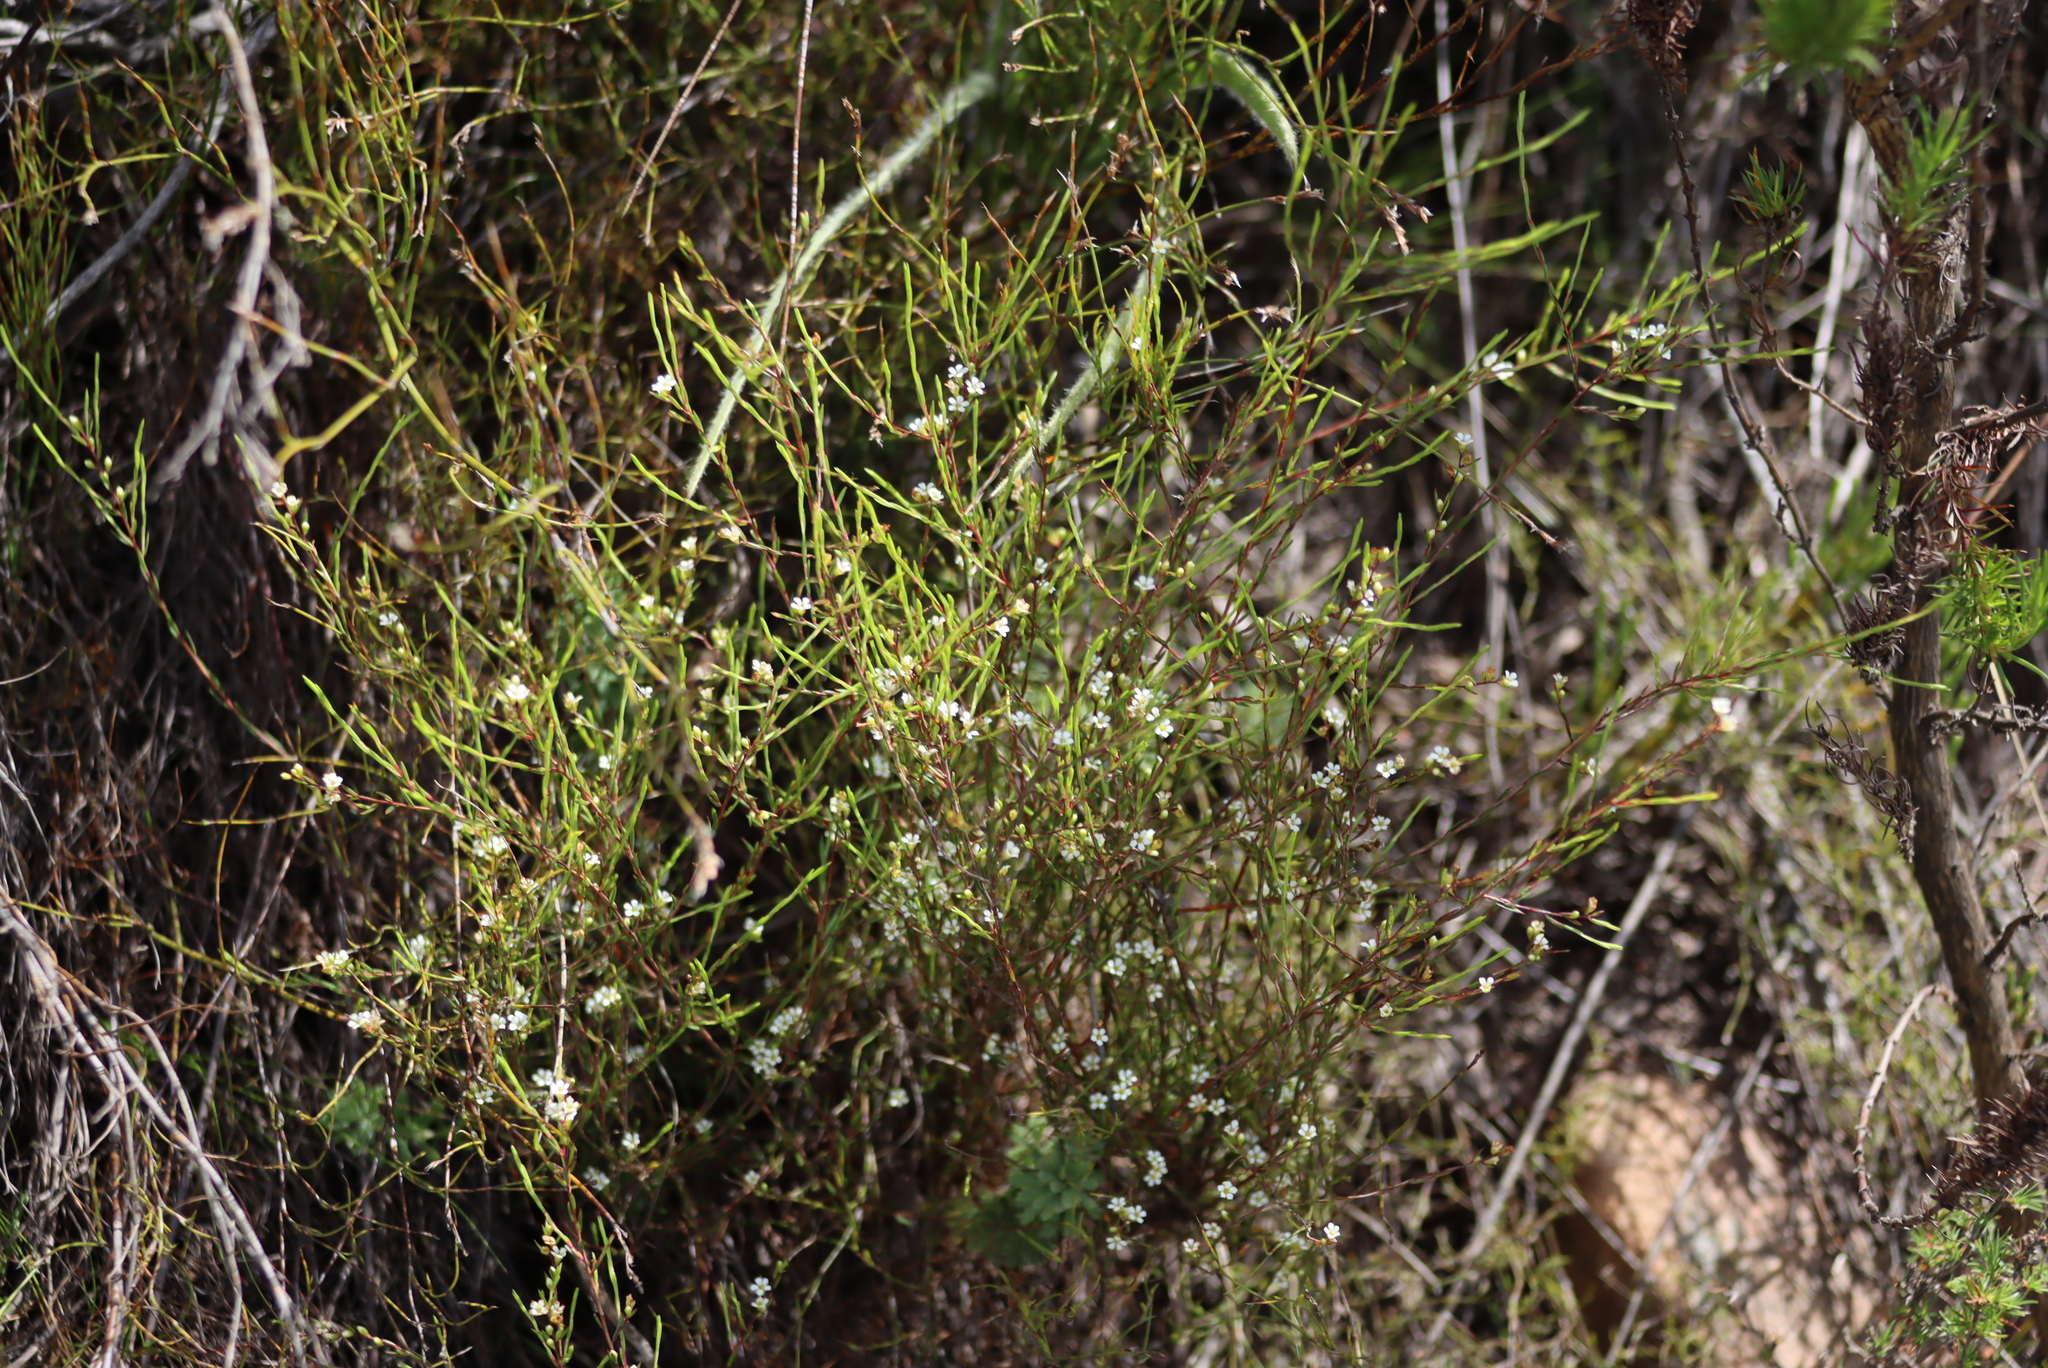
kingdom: Plantae
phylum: Tracheophyta
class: Magnoliopsida
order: Sapindales
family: Rutaceae
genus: Diosma
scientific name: Diosma hirsuta
